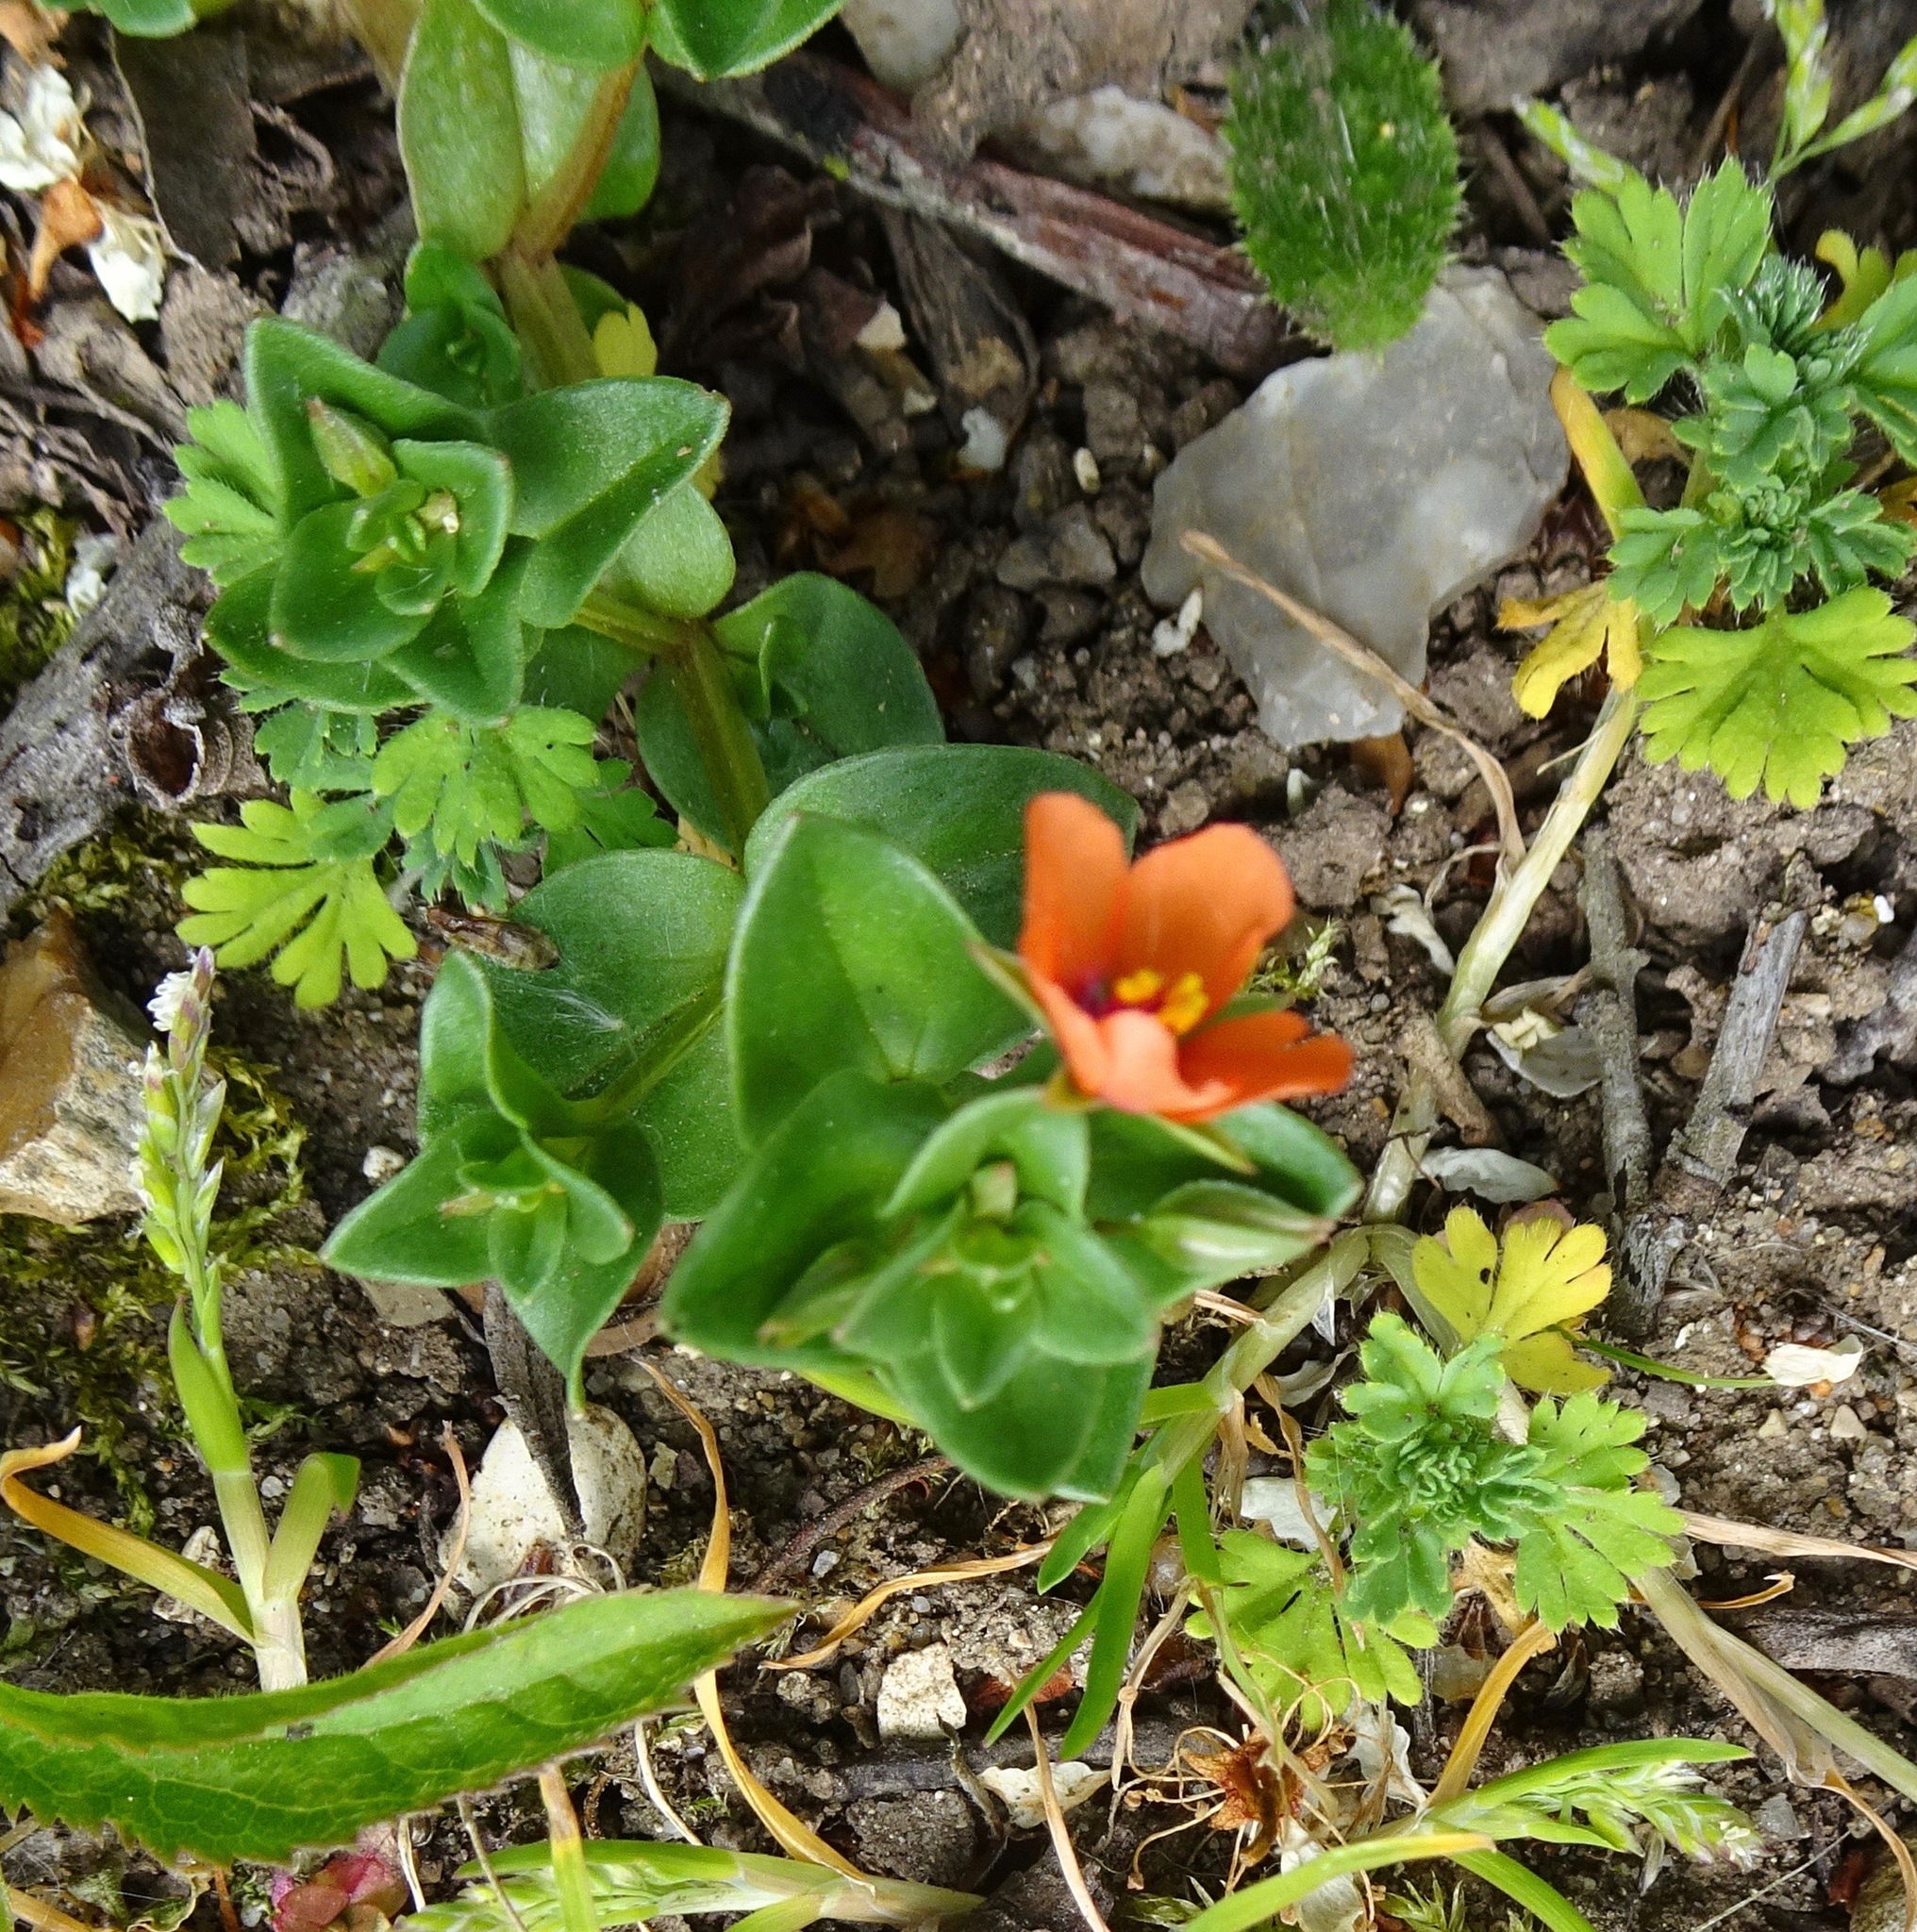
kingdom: Plantae
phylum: Tracheophyta
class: Magnoliopsida
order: Ericales
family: Primulaceae
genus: Lysimachia
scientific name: Lysimachia arvensis
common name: Scarlet pimpernel
